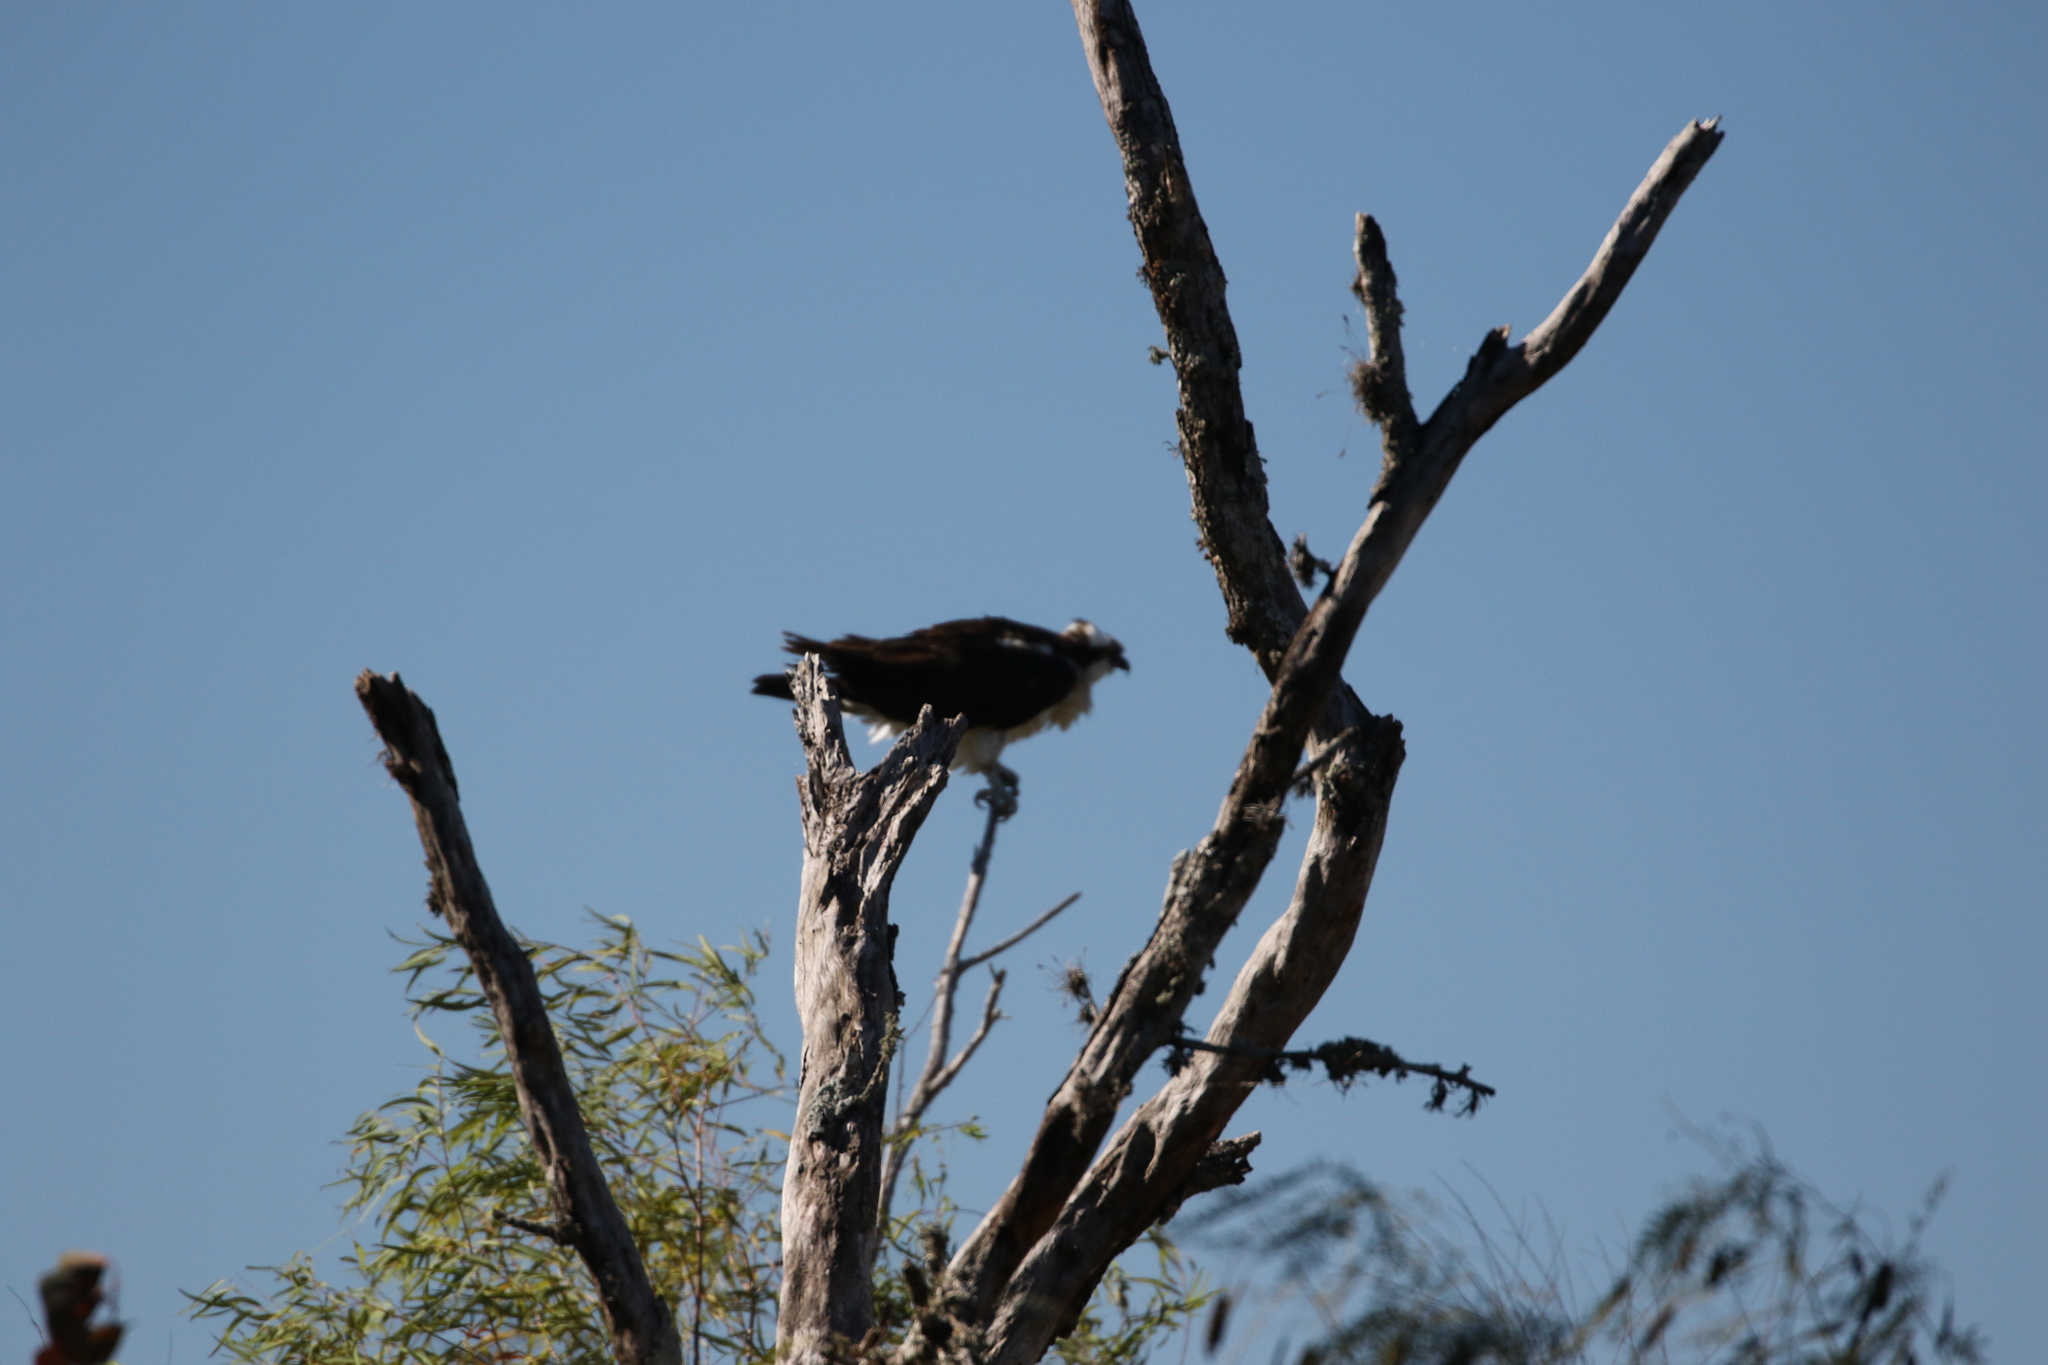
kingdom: Animalia
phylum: Chordata
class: Aves
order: Accipitriformes
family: Pandionidae
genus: Pandion
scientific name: Pandion haliaetus
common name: Osprey
